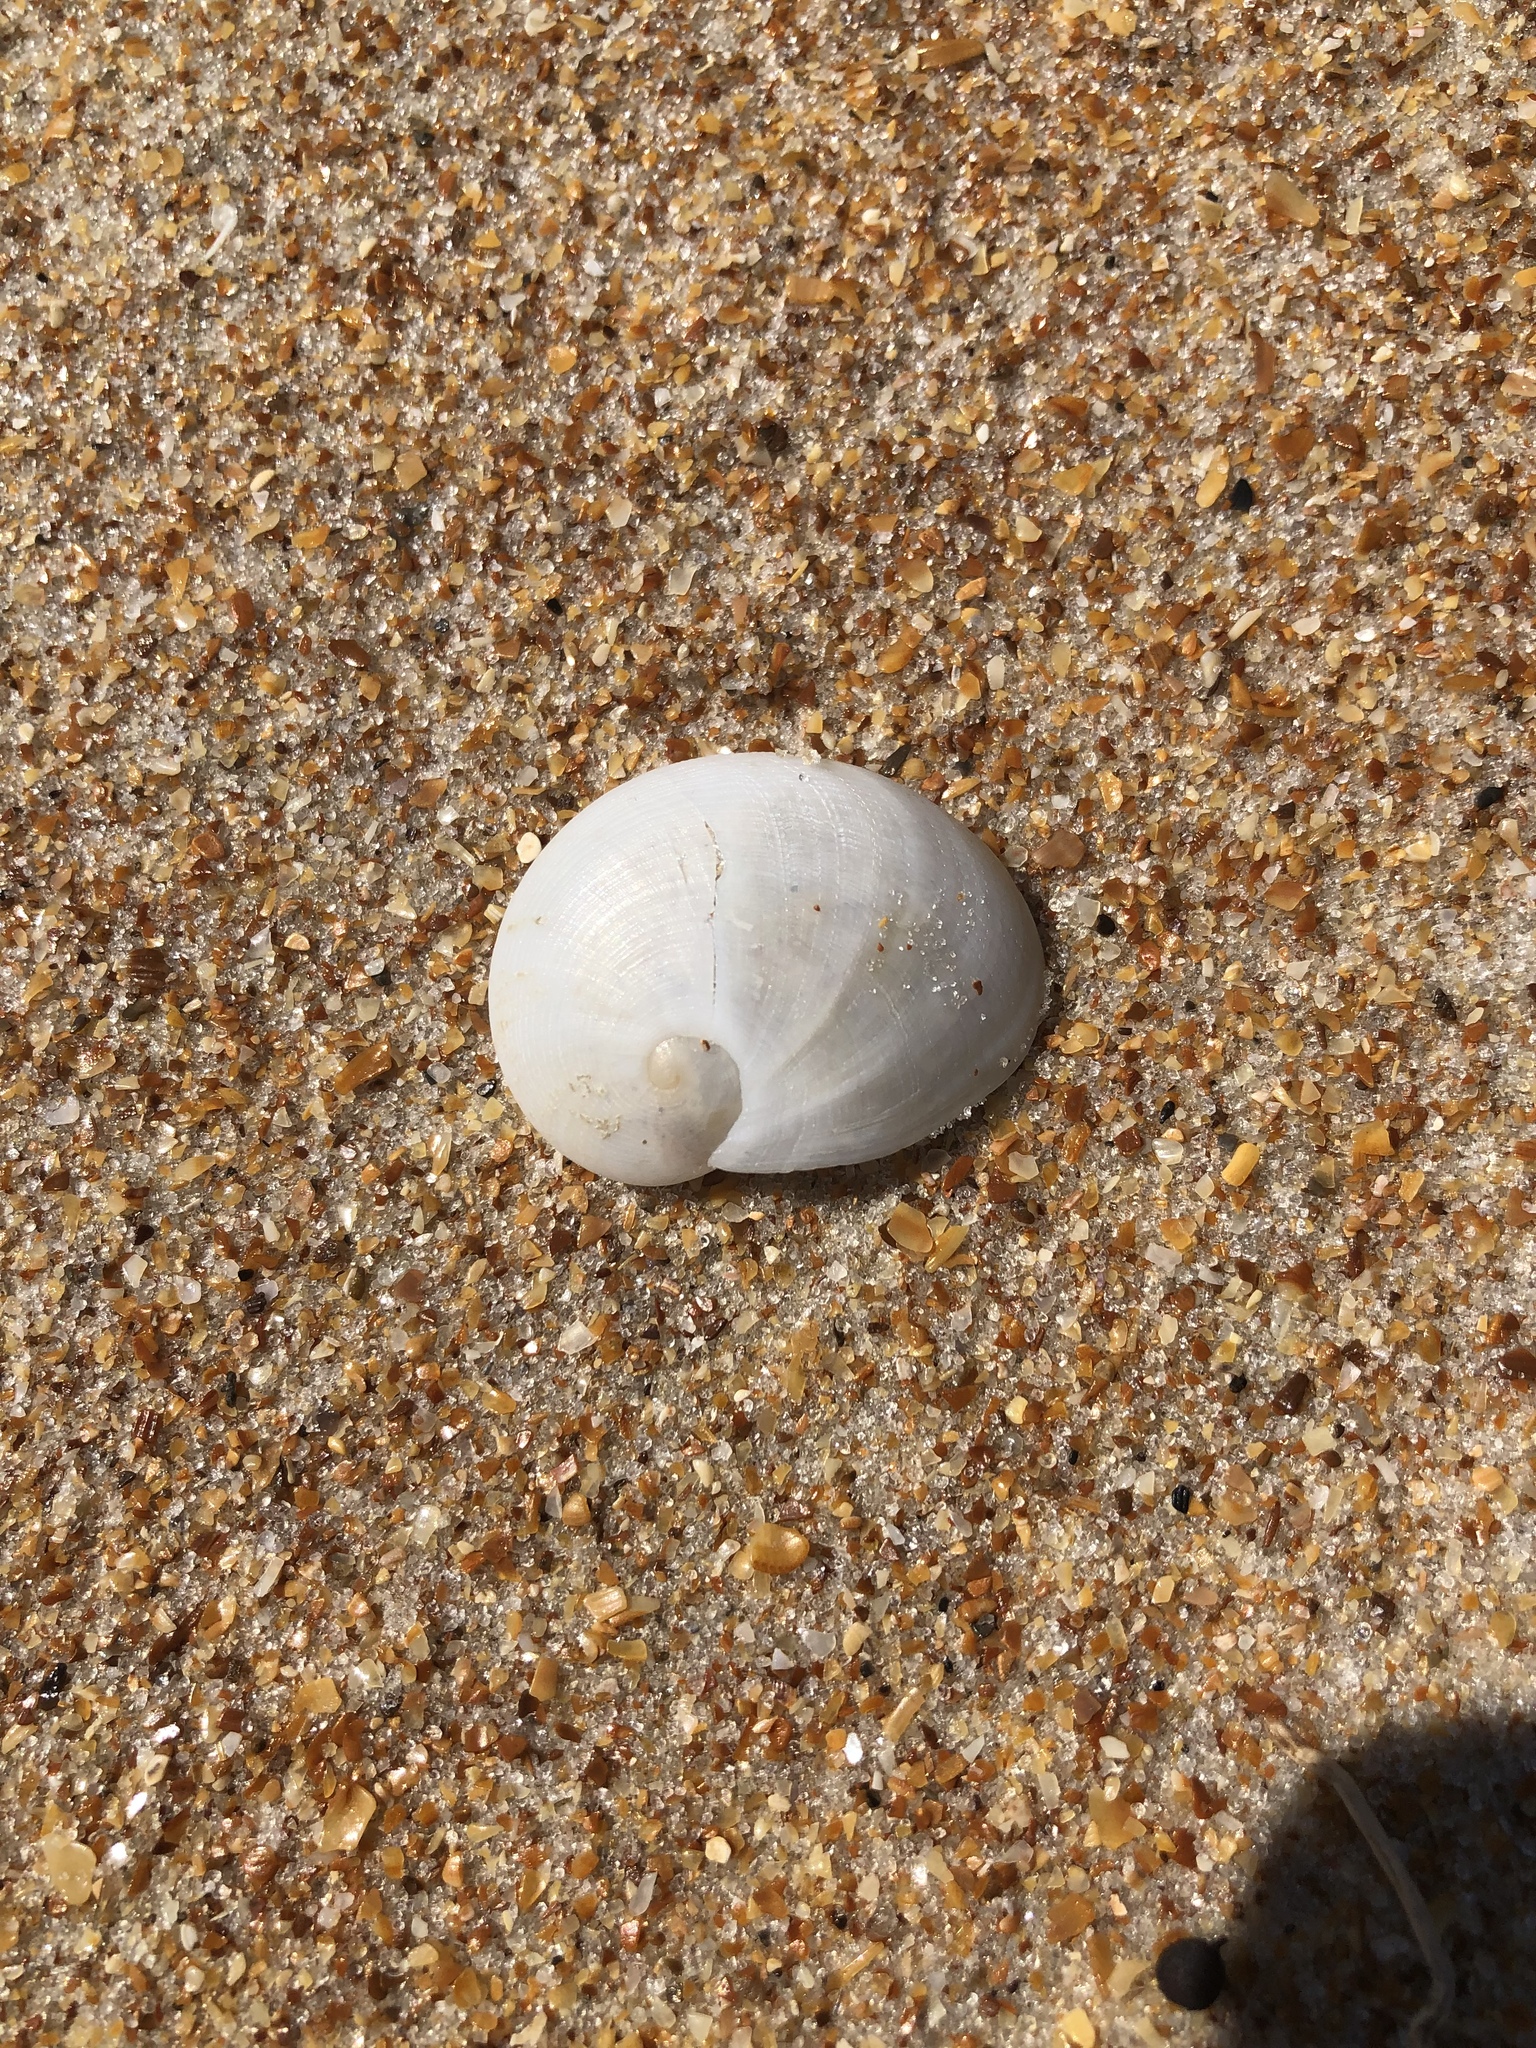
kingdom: Animalia
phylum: Mollusca
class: Gastropoda
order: Littorinimorpha
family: Naticidae
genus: Sinum
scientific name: Sinum perspectivum
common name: White baby ear
